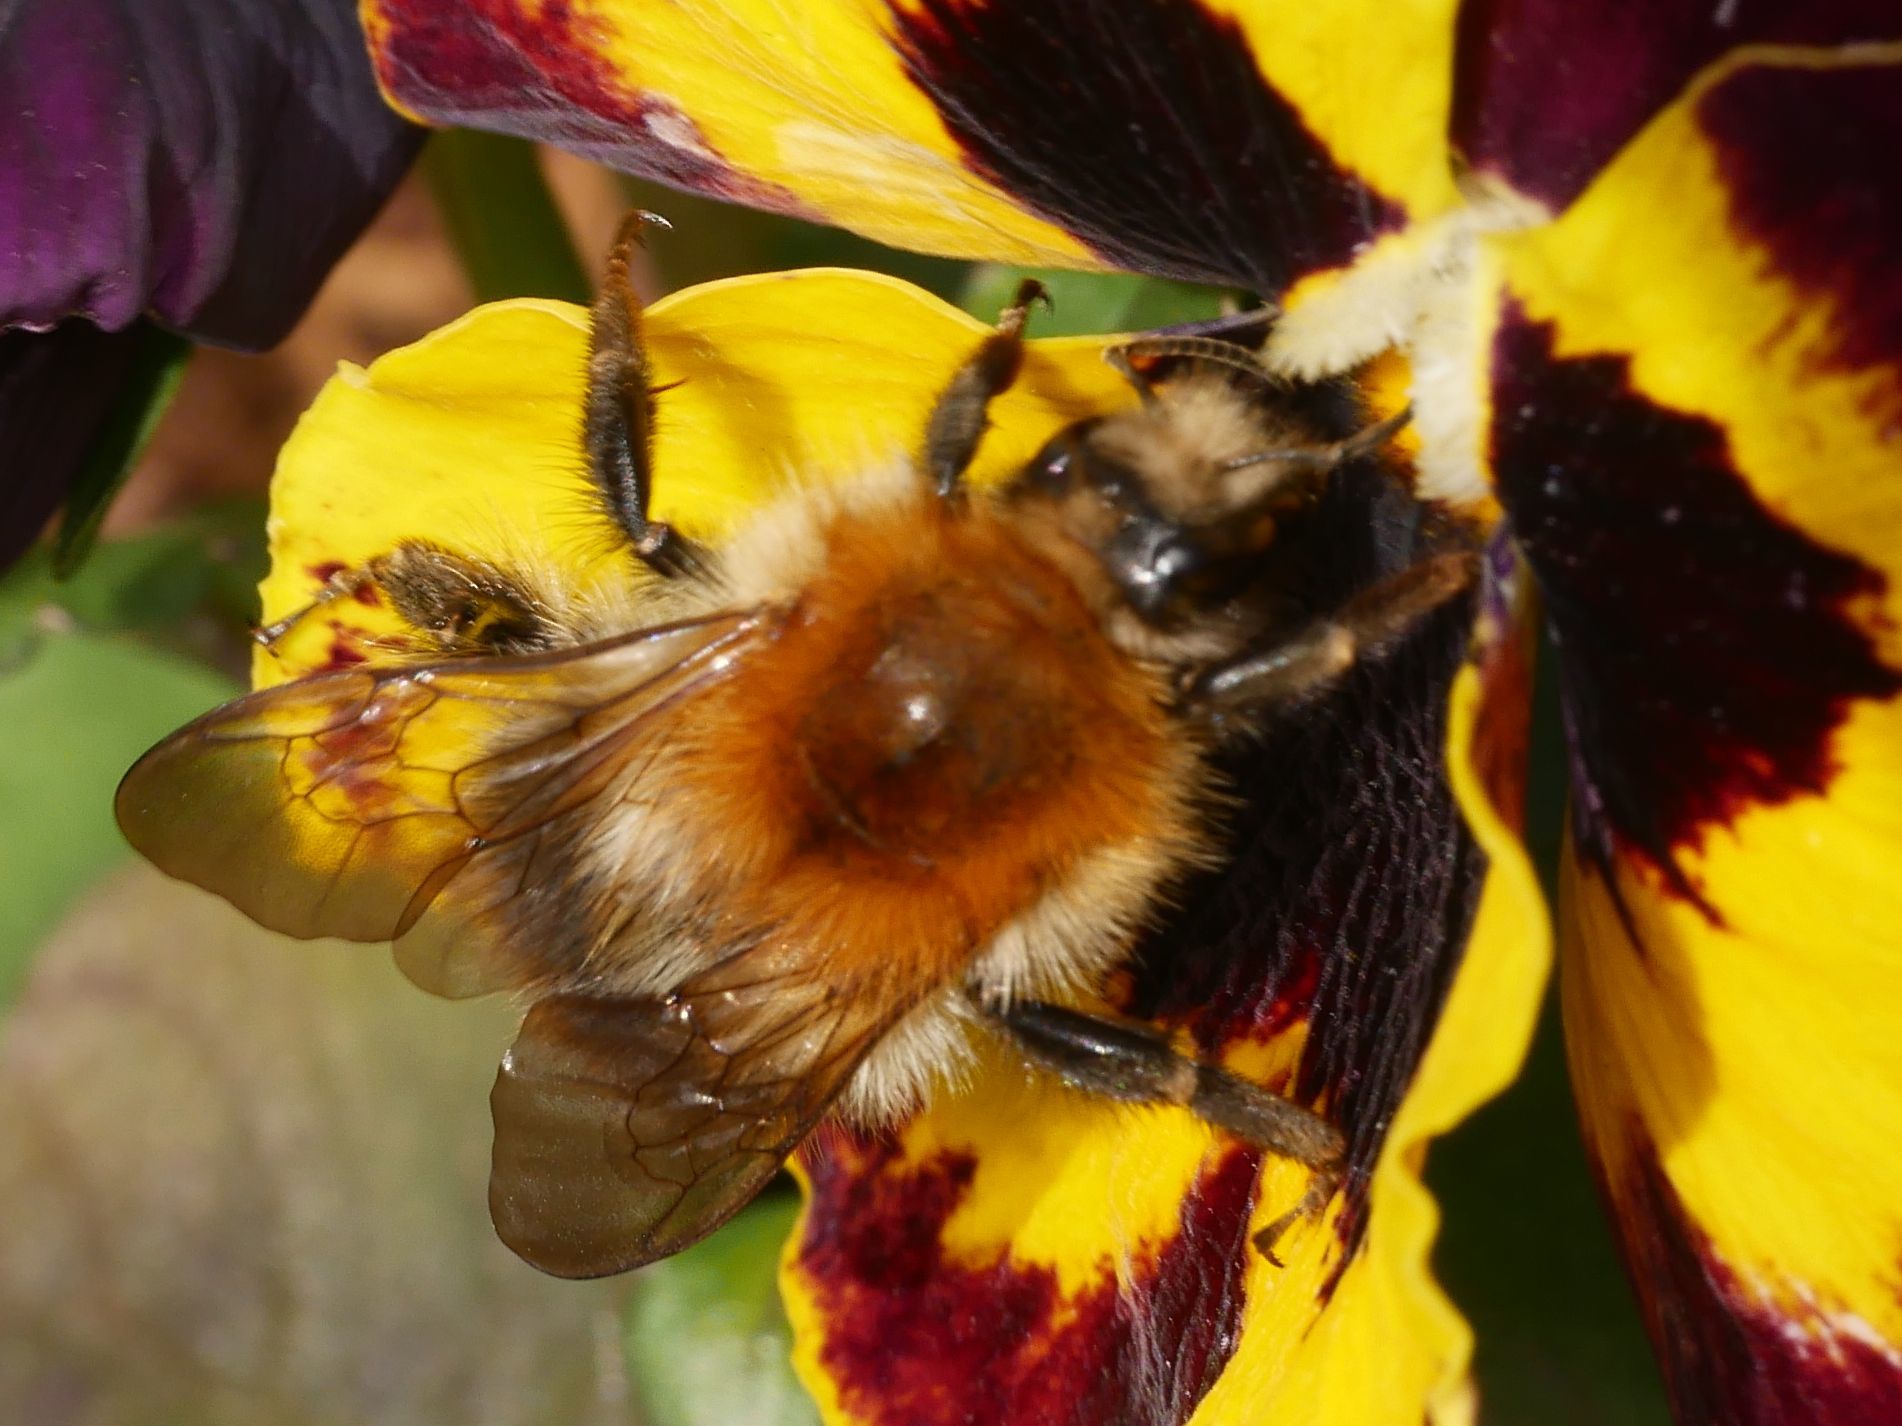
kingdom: Animalia
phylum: Arthropoda
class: Insecta
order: Hymenoptera
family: Apidae
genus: Bombus
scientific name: Bombus pascuorum
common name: Common carder bee
